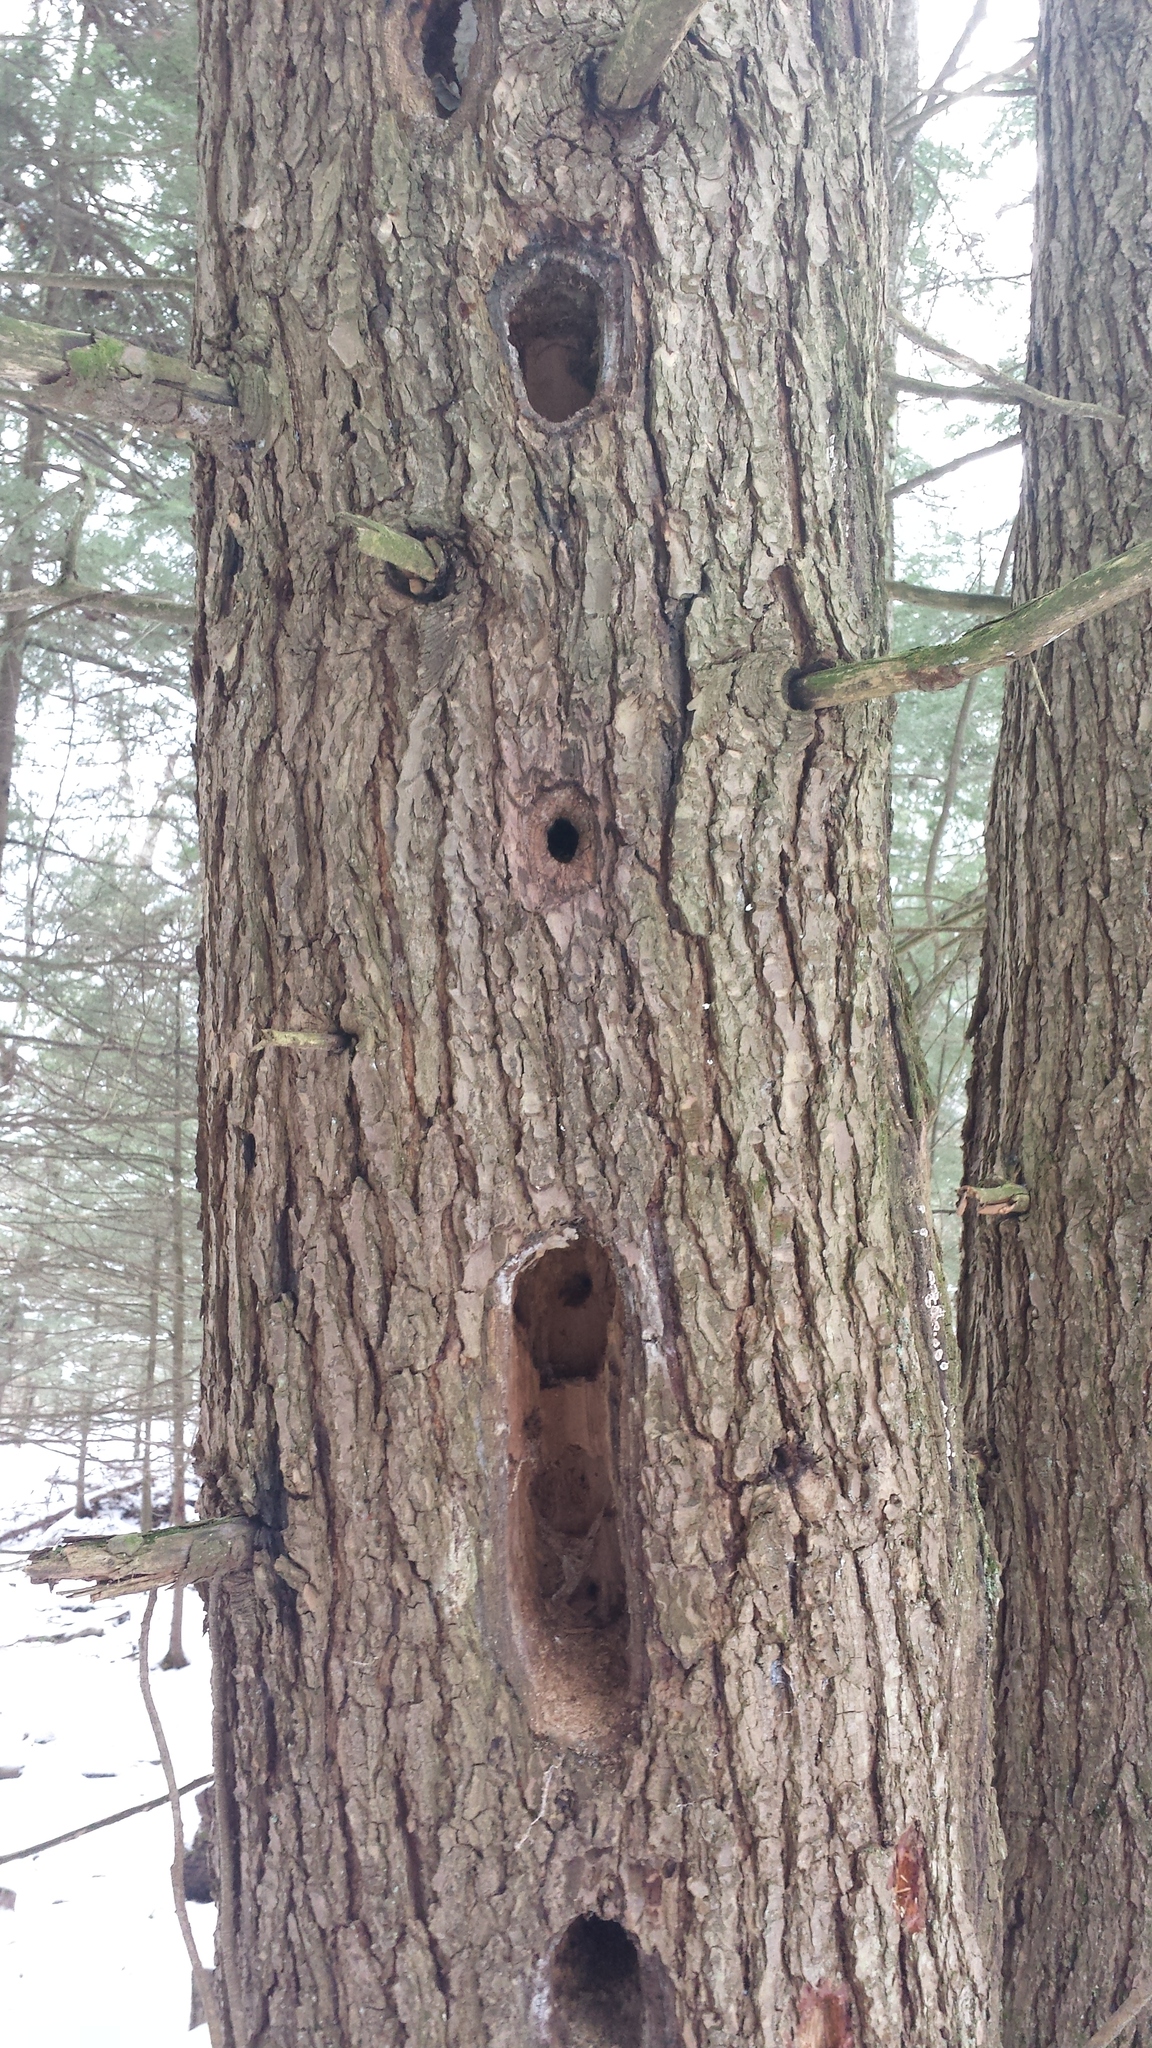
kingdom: Animalia
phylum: Chordata
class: Aves
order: Piciformes
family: Picidae
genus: Dryocopus
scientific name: Dryocopus pileatus
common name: Pileated woodpecker
